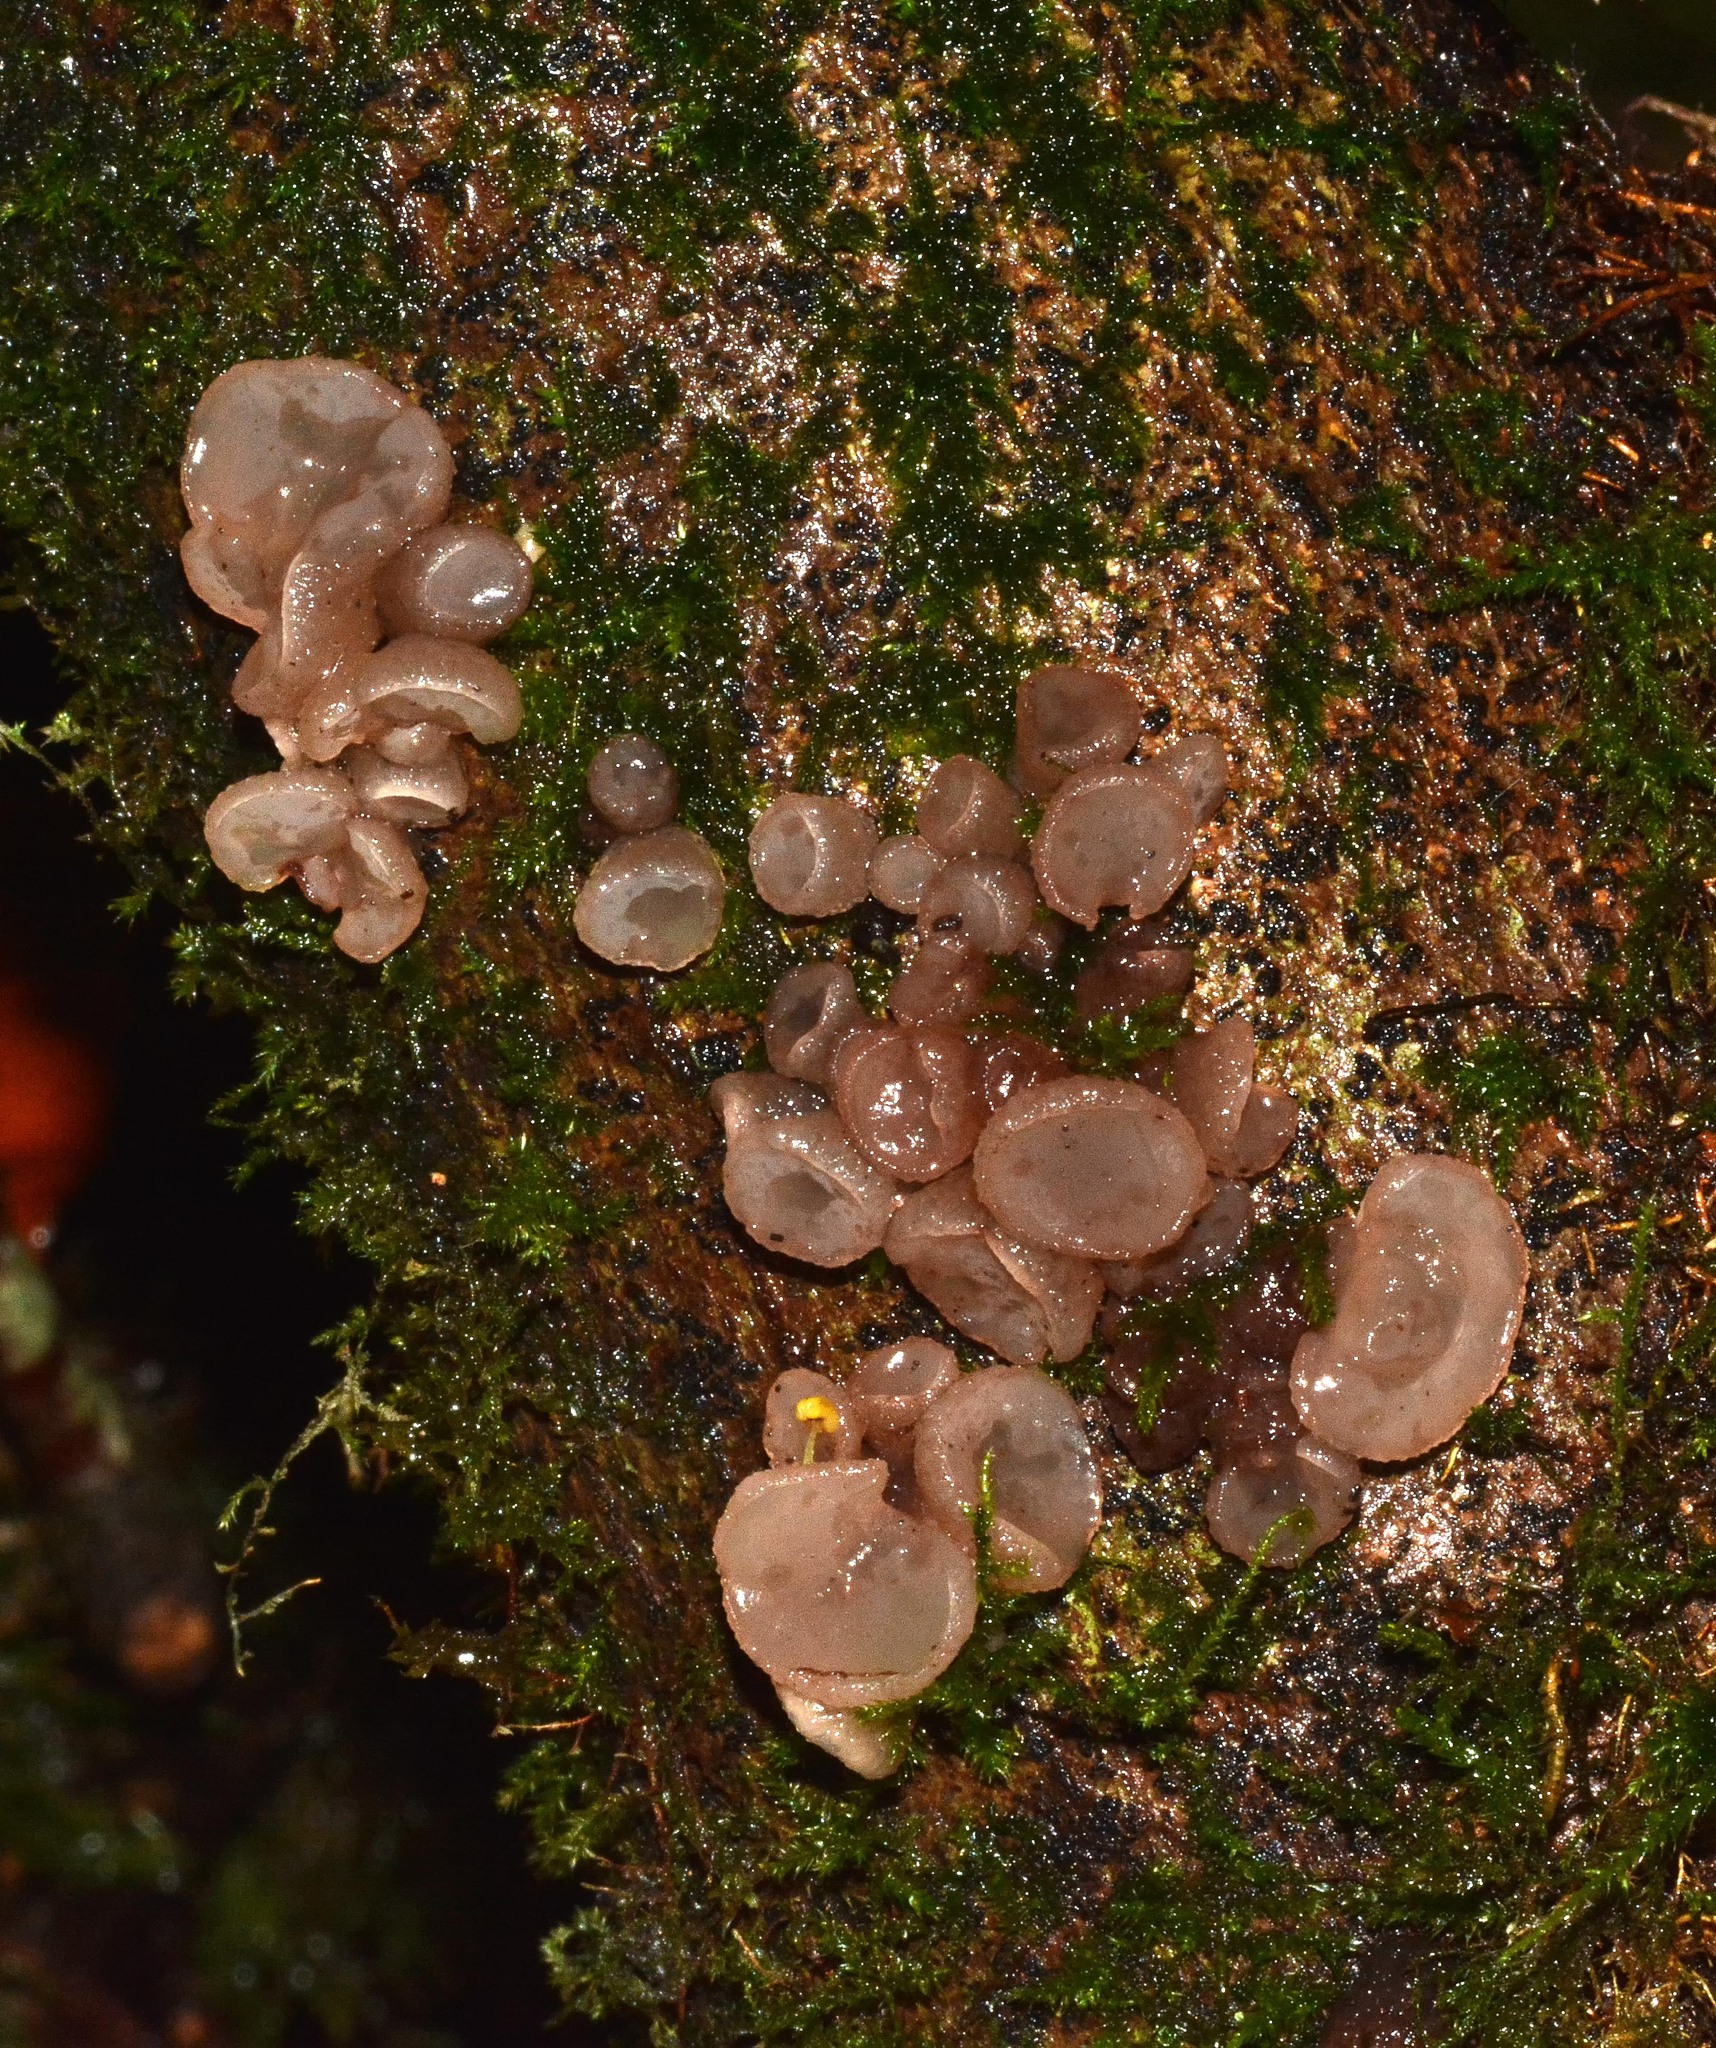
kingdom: Fungi
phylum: Ascomycota
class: Leotiomycetes
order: Helotiales
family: Gelatinodiscaceae
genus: Neobulgaria
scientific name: Neobulgaria pura
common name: Beech jelly-disc
